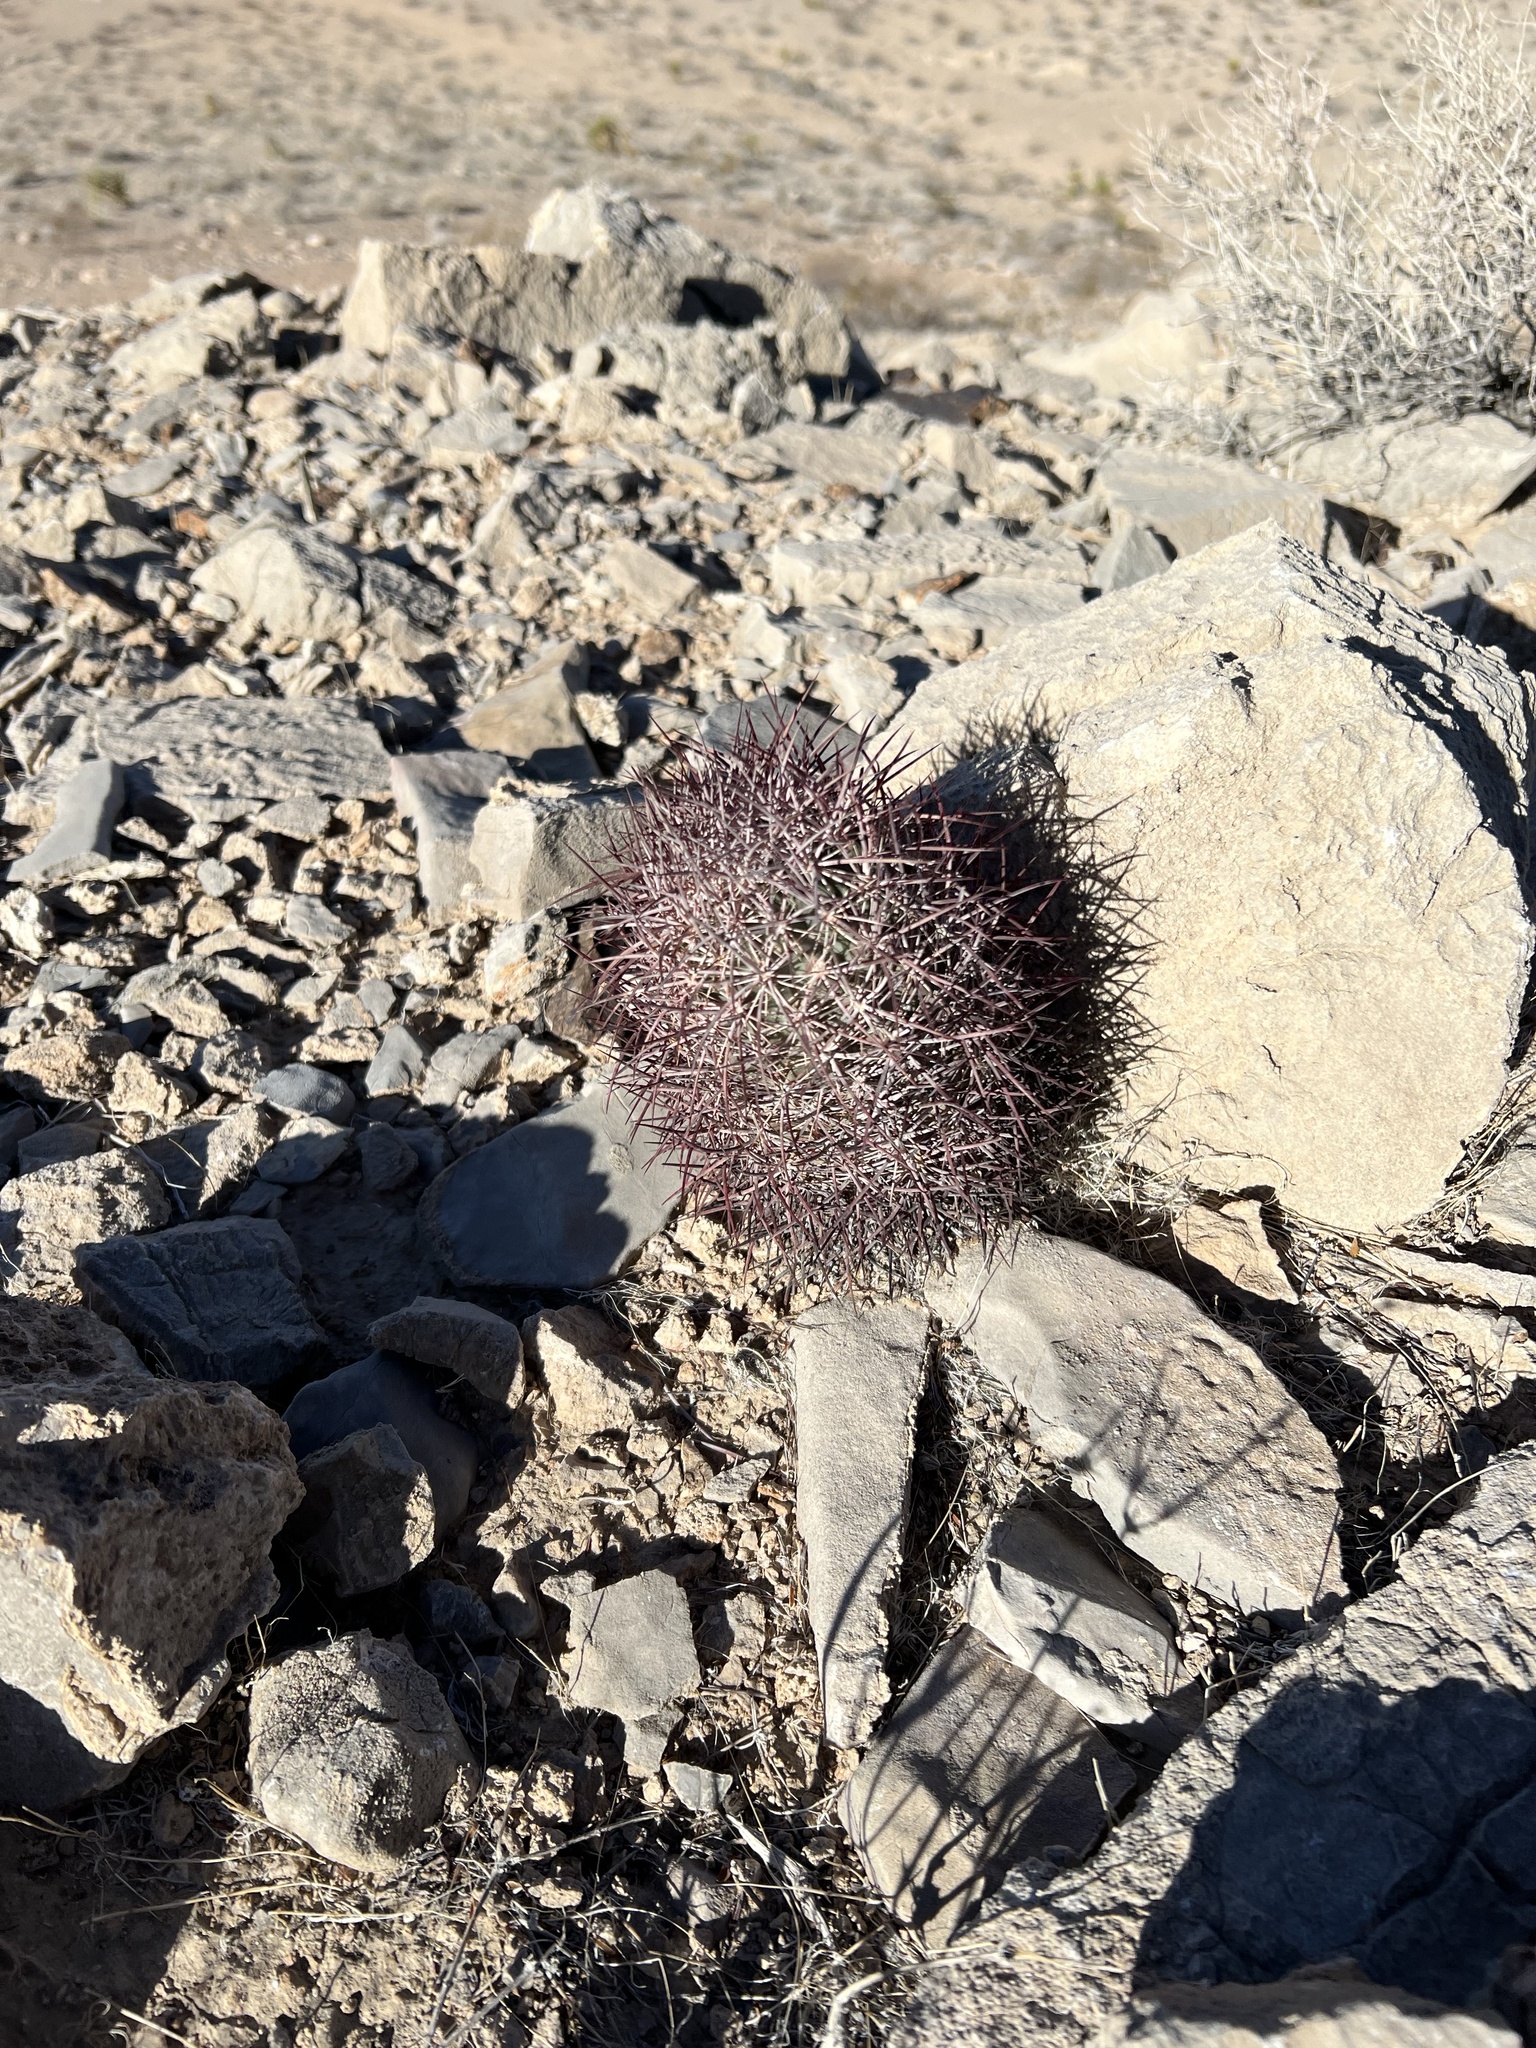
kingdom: Plantae
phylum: Tracheophyta
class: Magnoliopsida
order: Caryophyllales
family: Cactaceae
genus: Sclerocactus
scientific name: Sclerocactus johnsonii
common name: Eight-spine fishhook cactus
